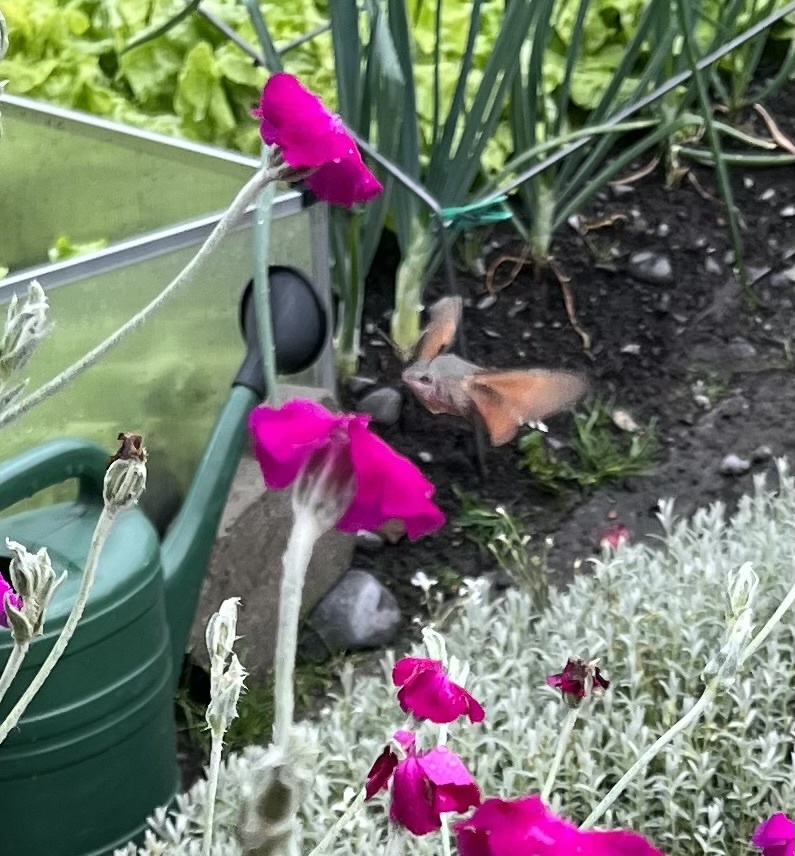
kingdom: Animalia
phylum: Arthropoda
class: Insecta
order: Lepidoptera
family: Sphingidae
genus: Macroglossum
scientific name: Macroglossum stellatarum
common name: Humming-bird hawk-moth
